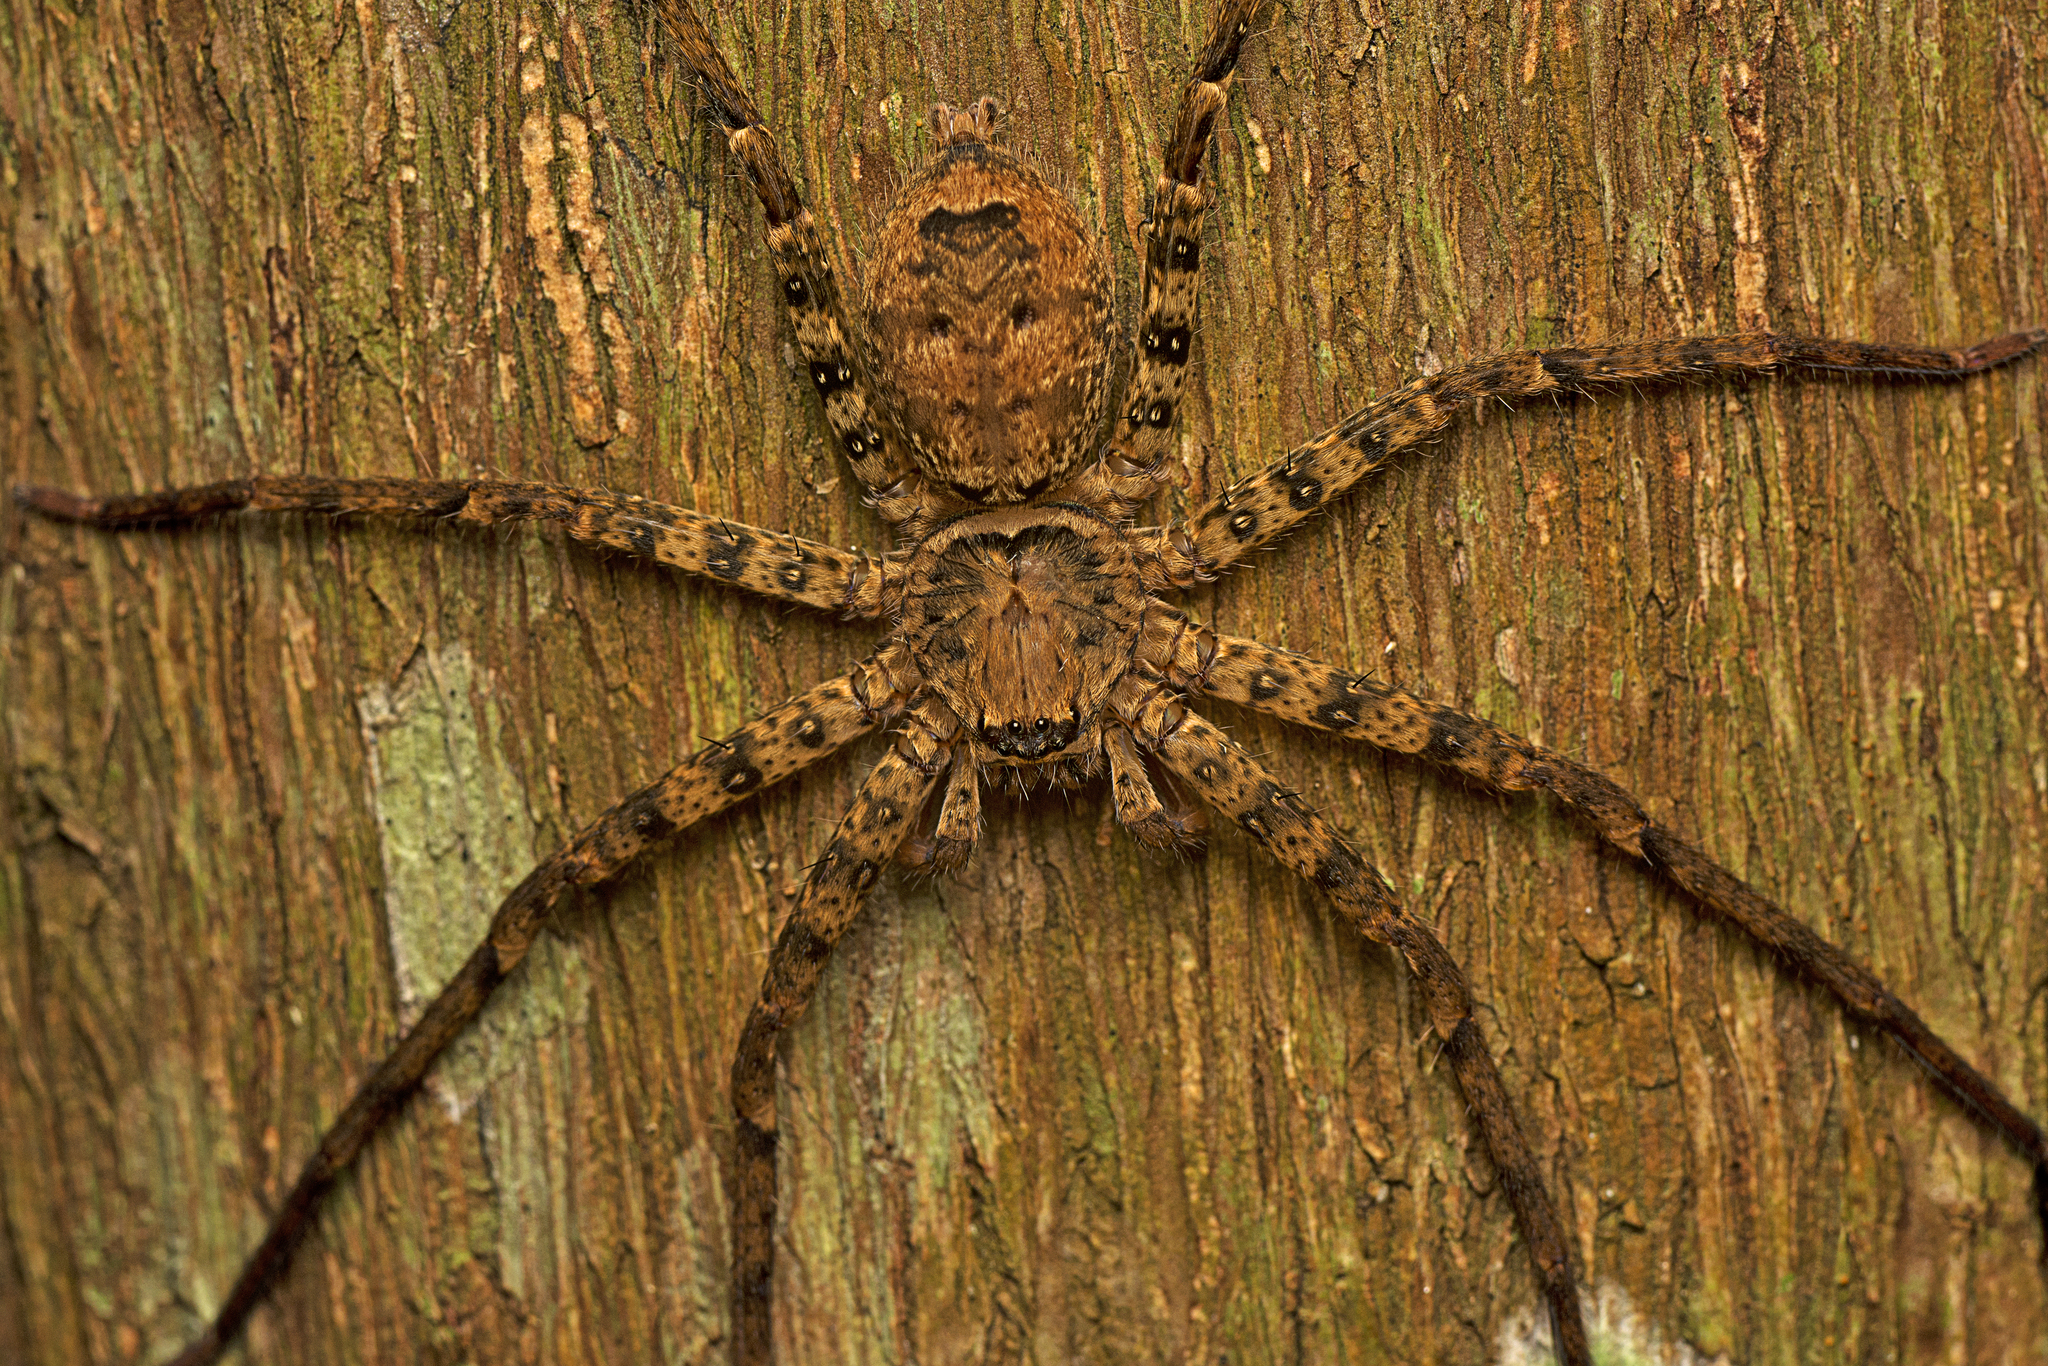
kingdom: Animalia
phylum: Arthropoda
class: Arachnida
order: Araneae
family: Sparassidae
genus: Heteropoda
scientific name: Heteropoda procera
